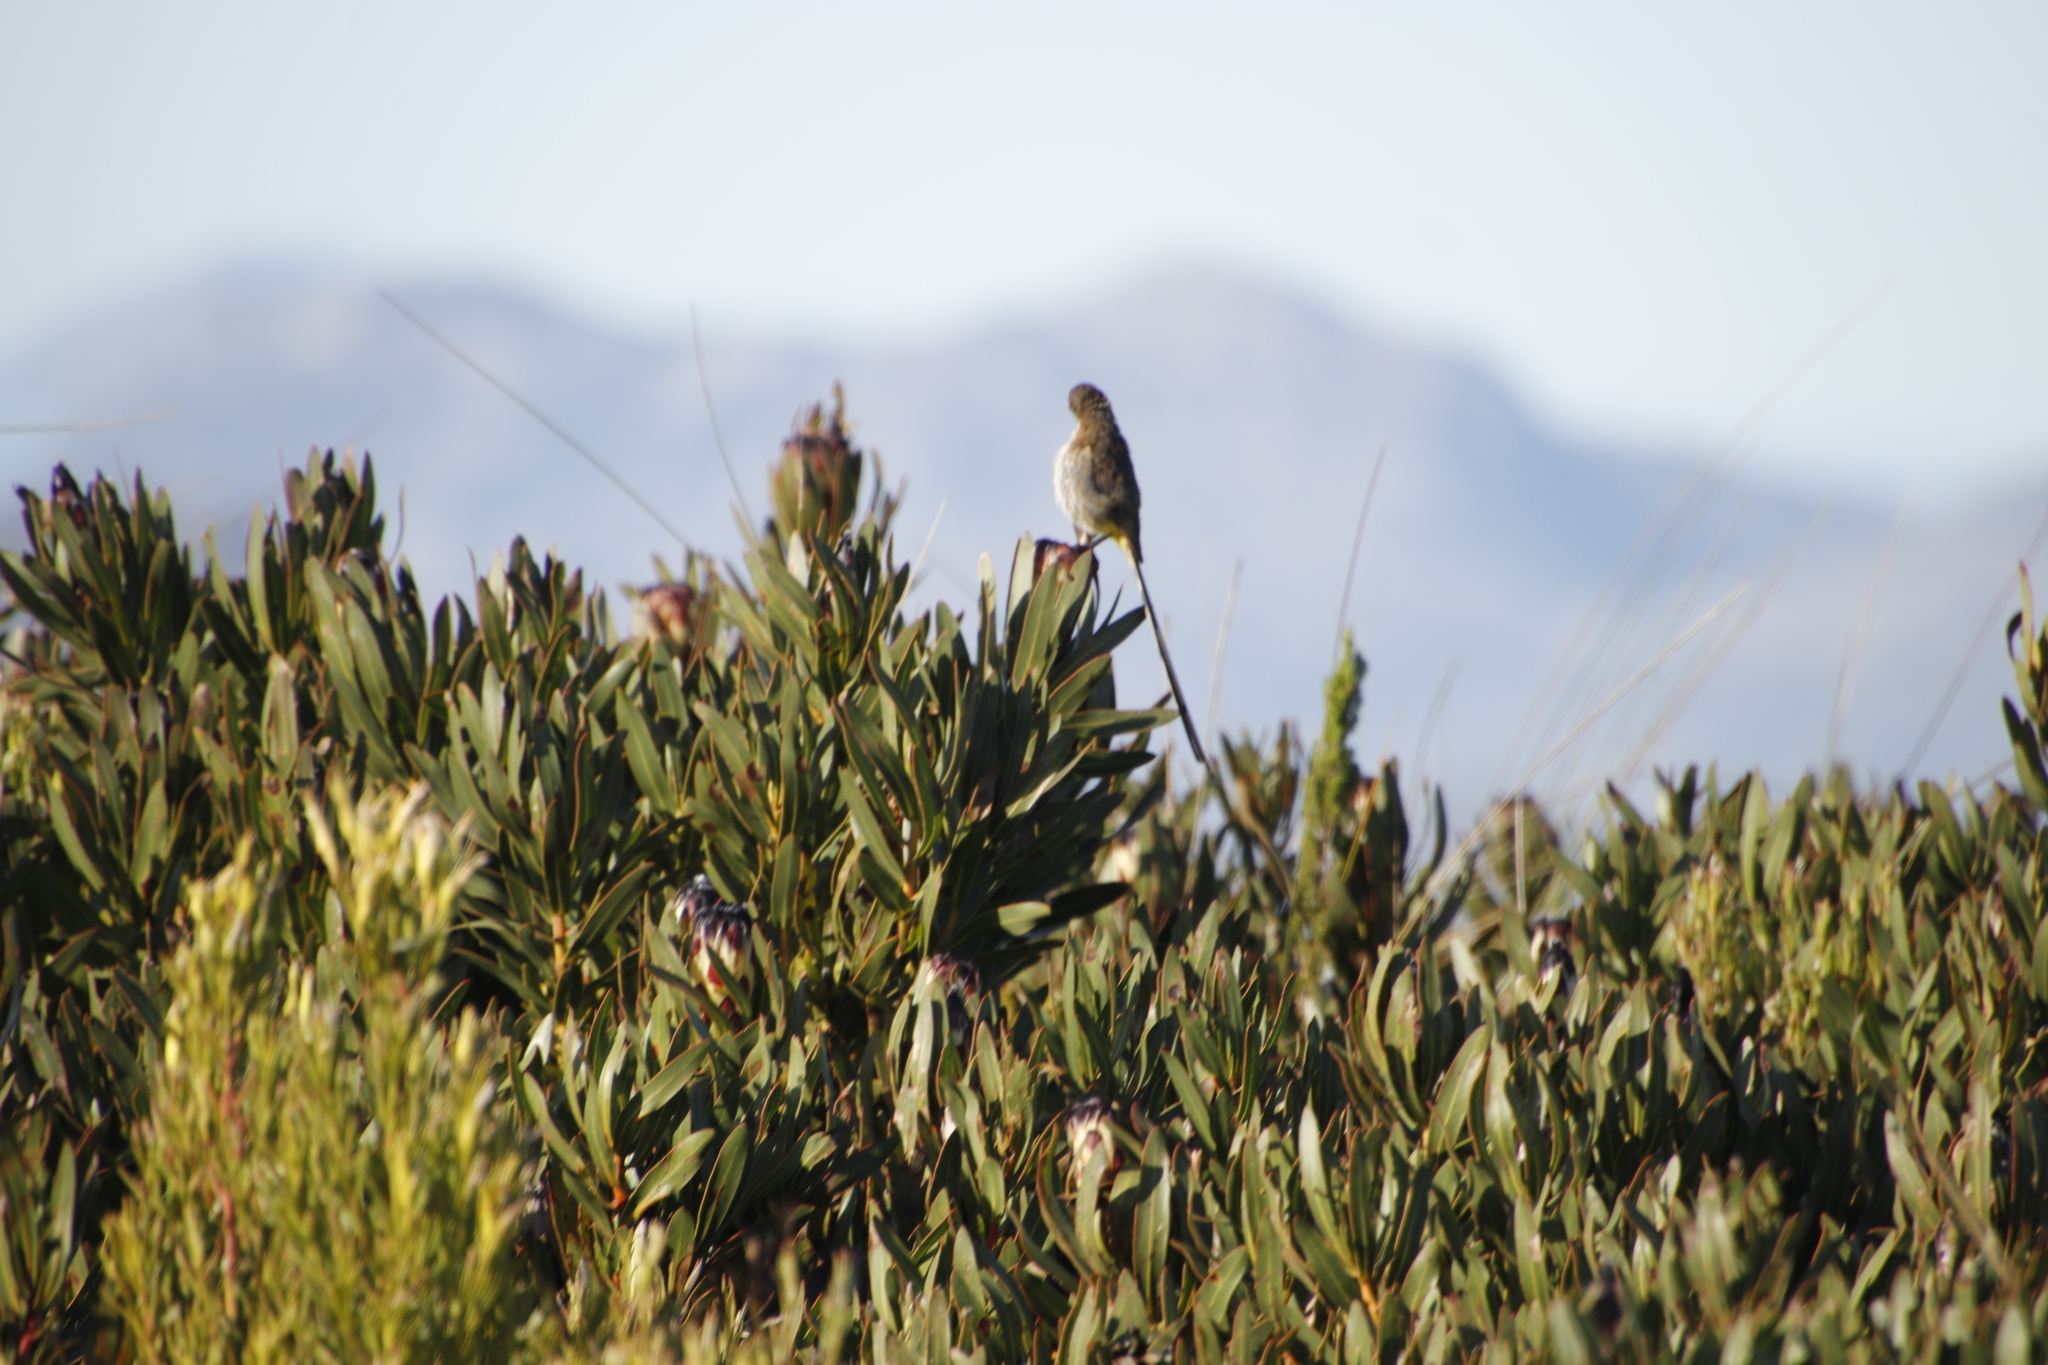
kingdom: Plantae
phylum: Tracheophyta
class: Magnoliopsida
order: Proteales
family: Proteaceae
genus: Protea
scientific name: Protea lepidocarpodendron
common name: Black-bearded protea
